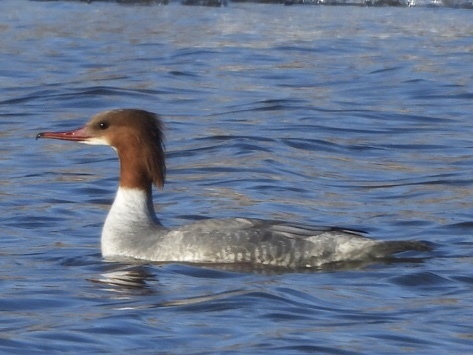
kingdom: Animalia
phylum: Chordata
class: Aves
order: Anseriformes
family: Anatidae
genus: Mergus
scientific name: Mergus merganser
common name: Common merganser
